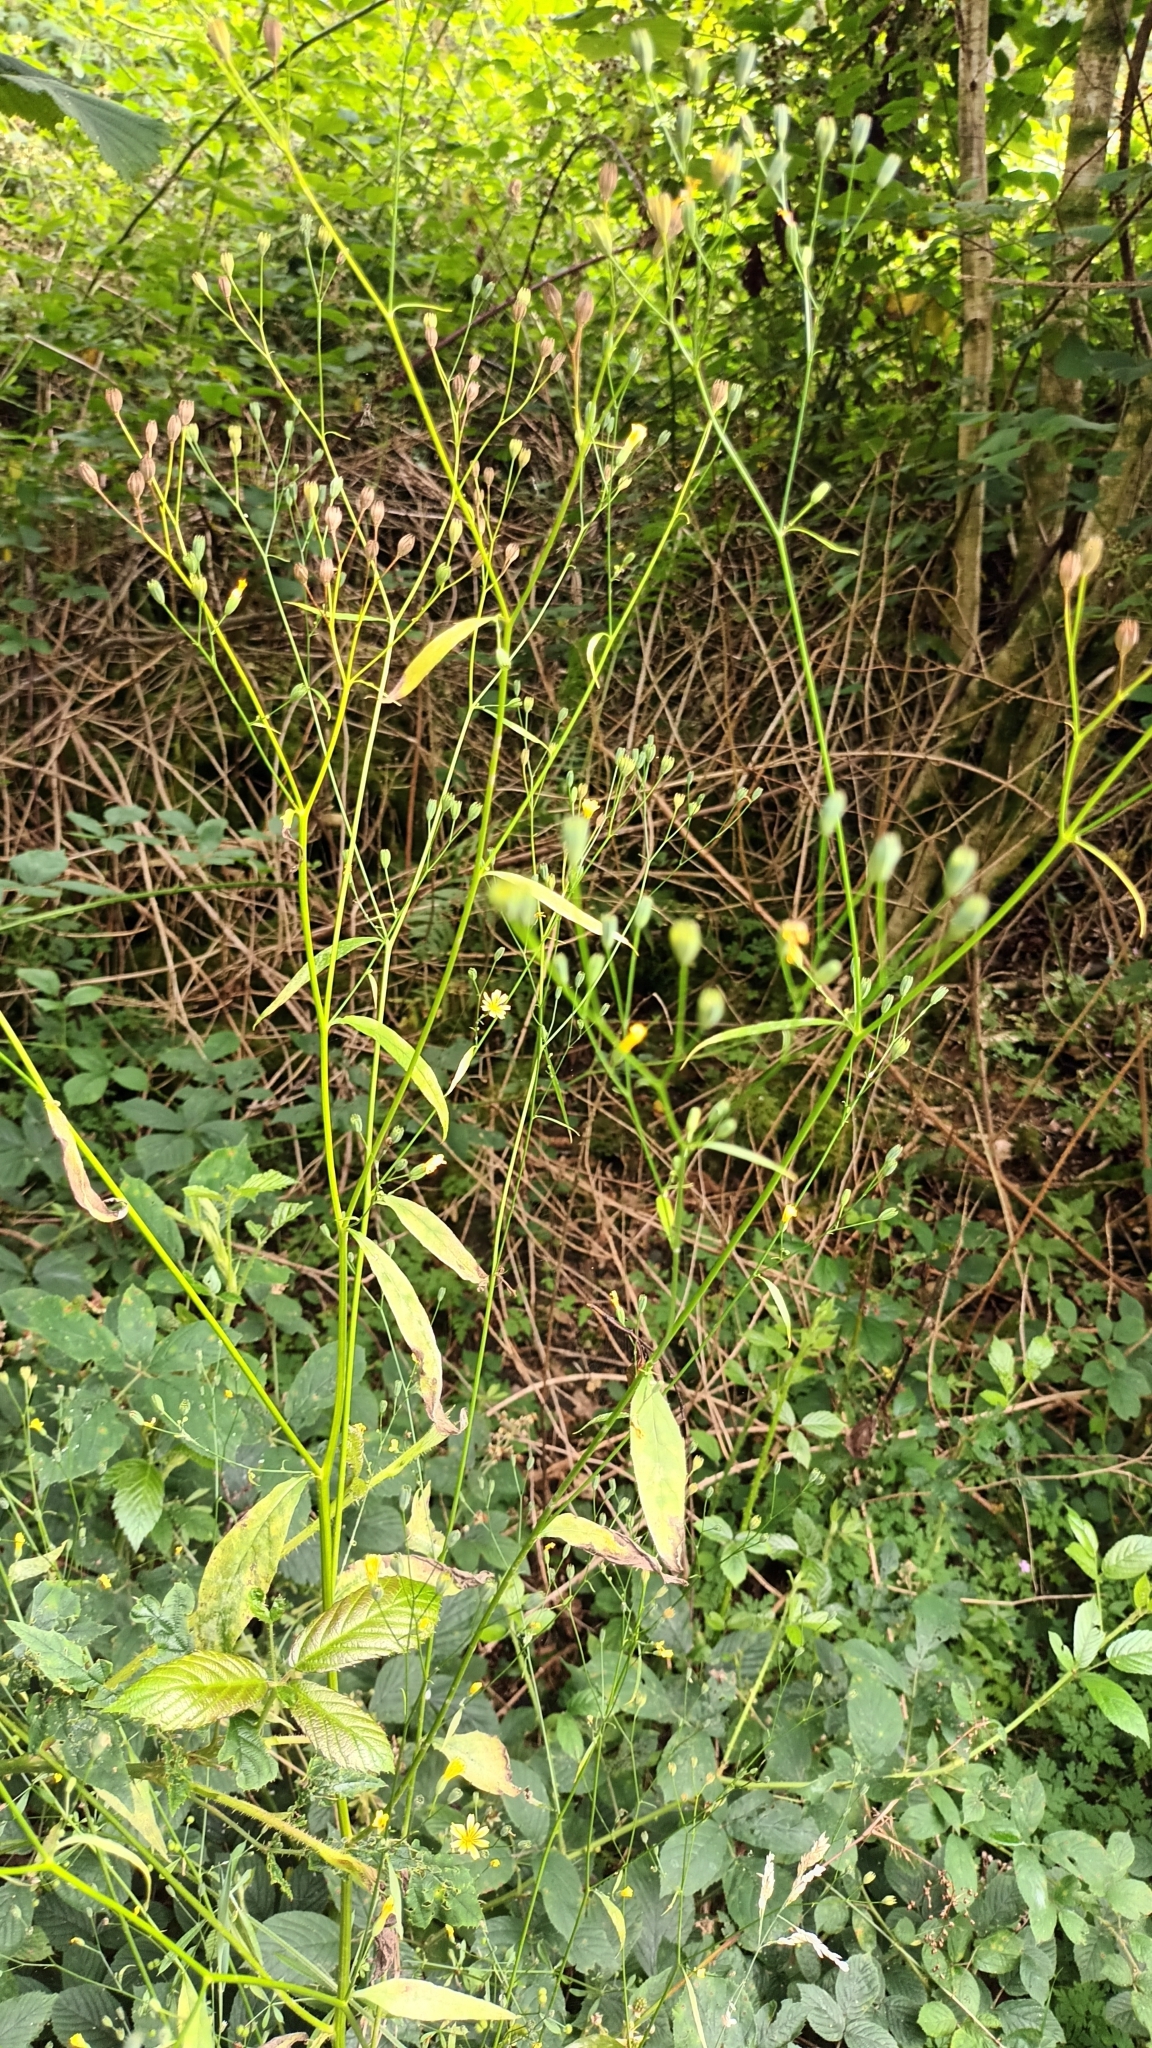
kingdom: Plantae
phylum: Tracheophyta
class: Magnoliopsida
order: Asterales
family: Asteraceae
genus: Lapsana
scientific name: Lapsana communis
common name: Nipplewort
